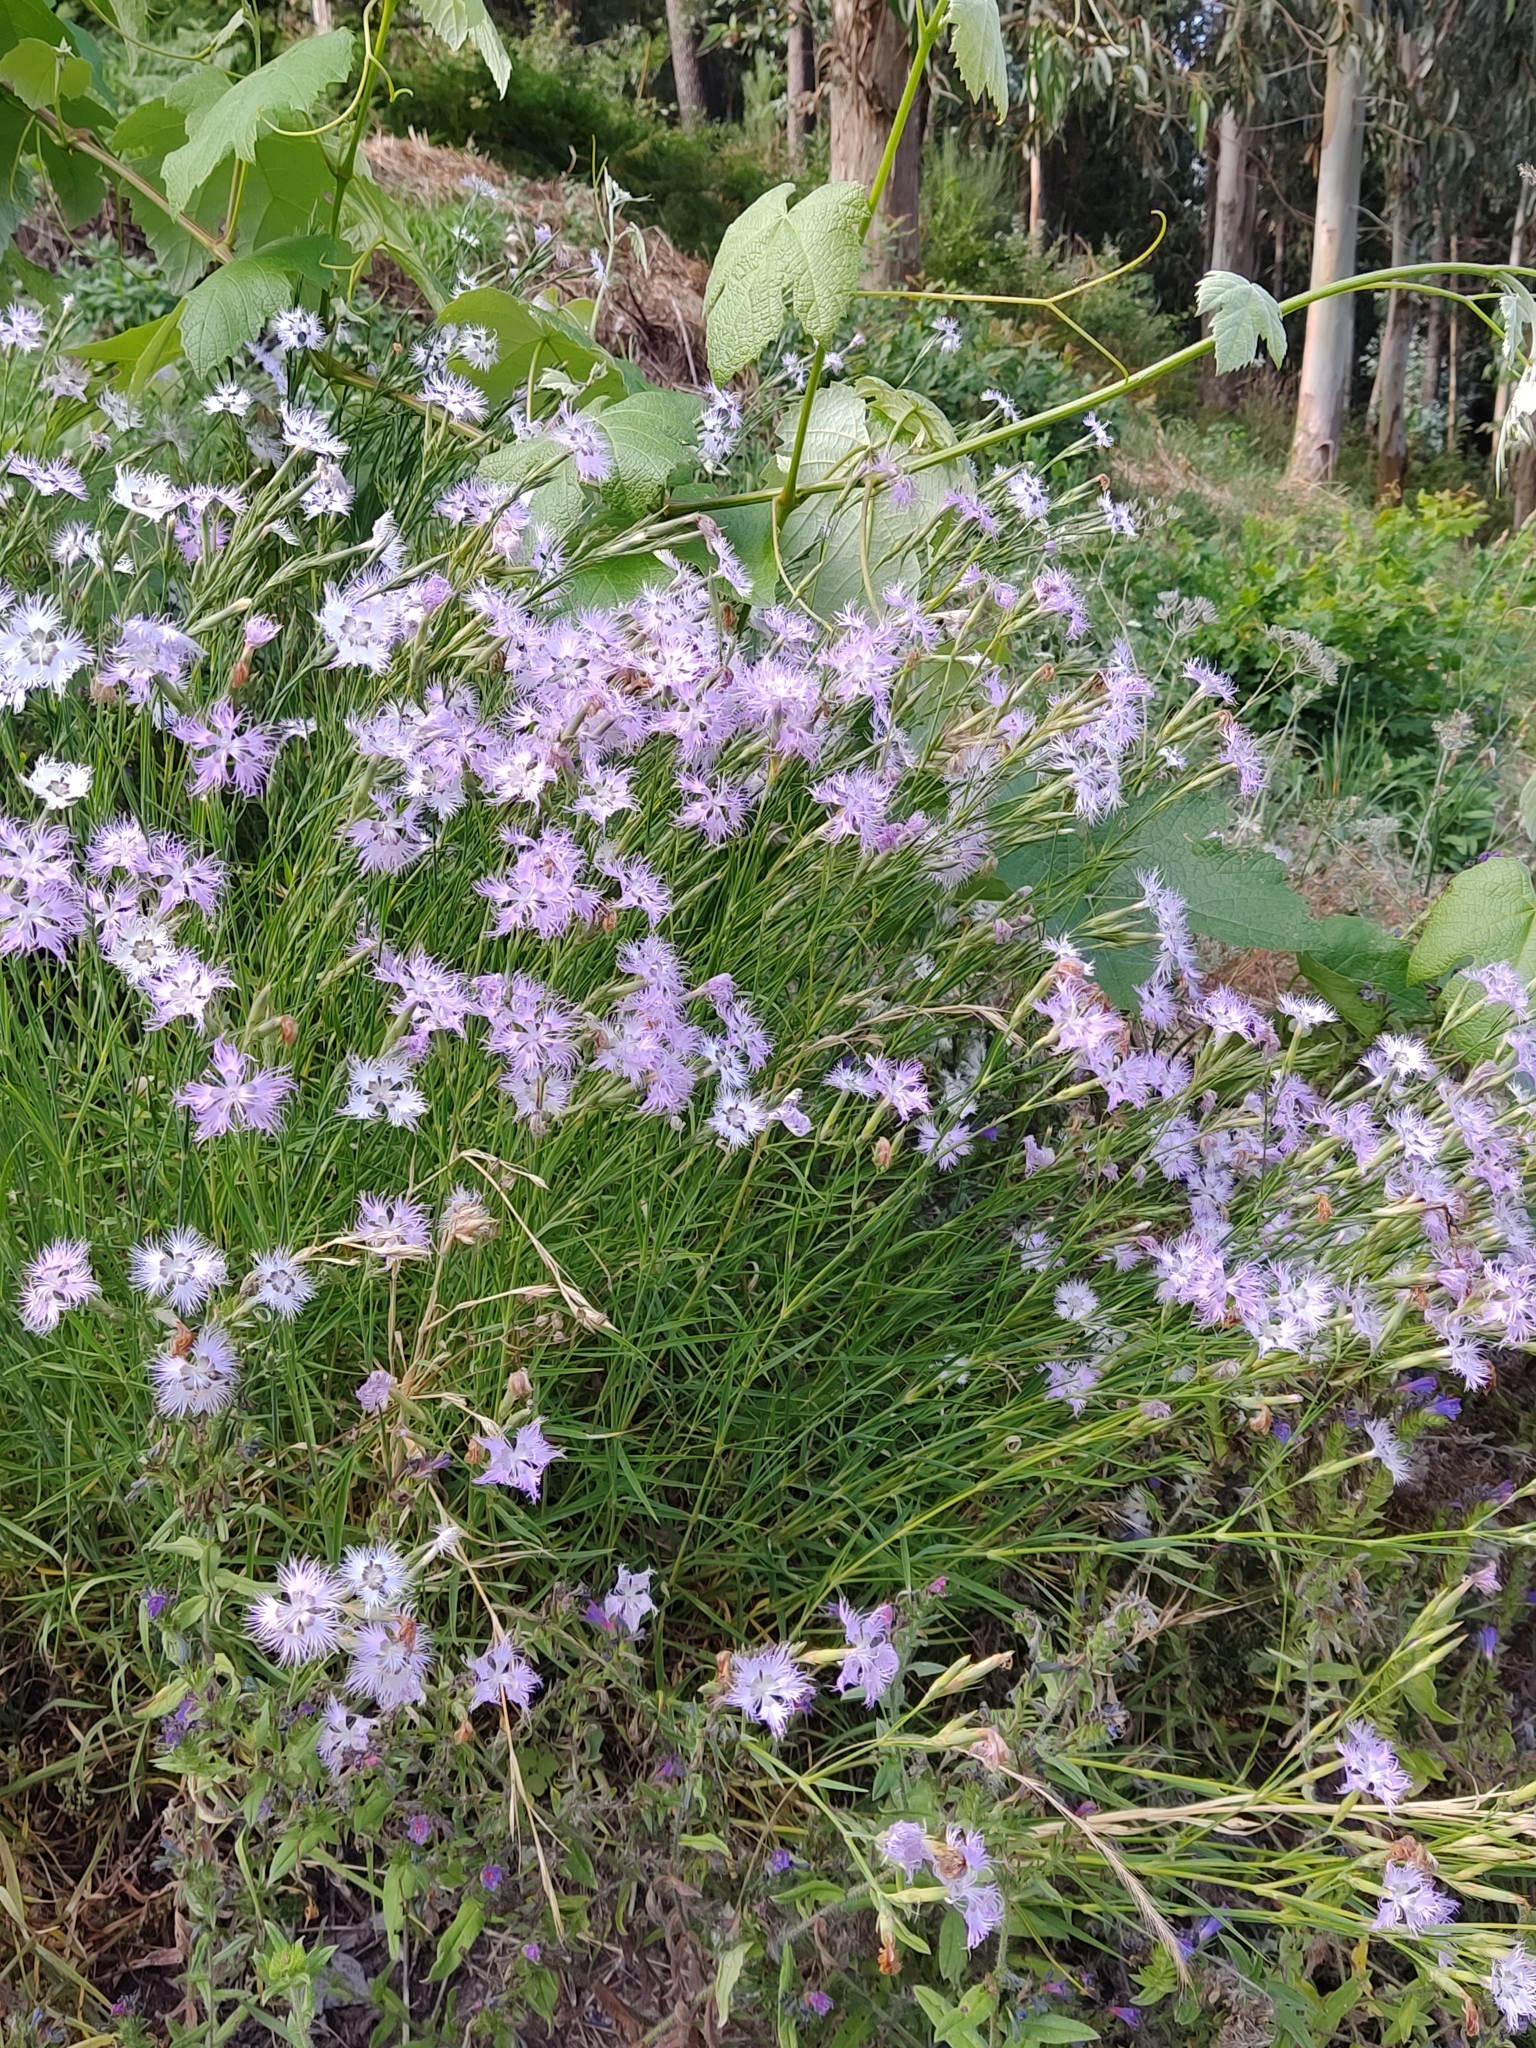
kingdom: Plantae
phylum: Tracheophyta
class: Magnoliopsida
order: Caryophyllales
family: Caryophyllaceae
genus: Dianthus
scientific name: Dianthus hyssopifolius
